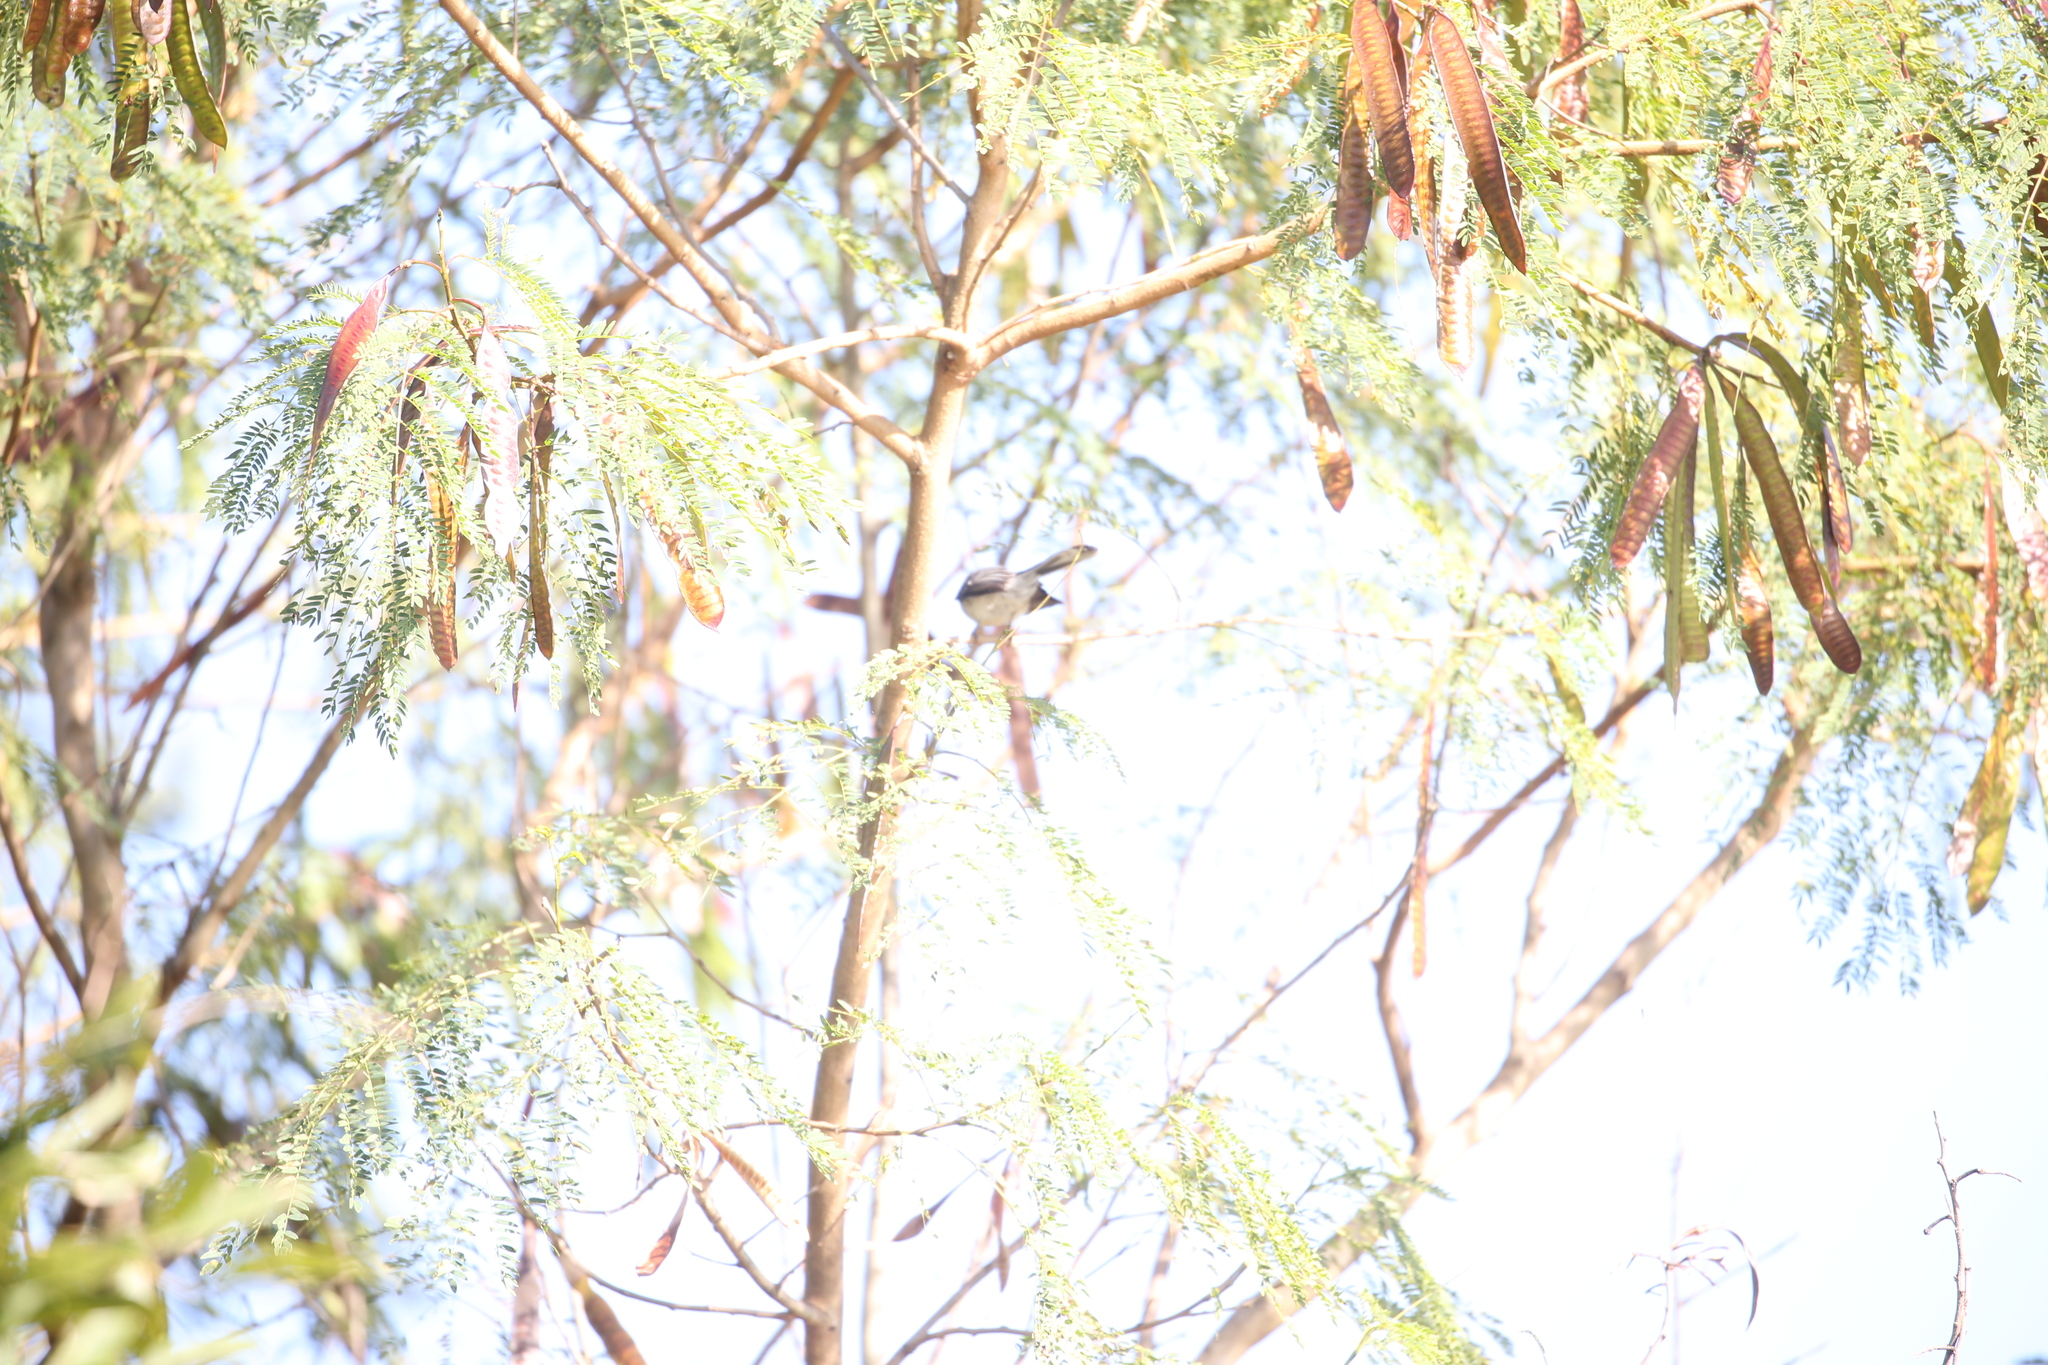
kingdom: Animalia
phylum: Chordata
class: Aves
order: Passeriformes
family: Rhipiduridae
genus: Rhipidura
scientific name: Rhipidura albiscapa
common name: Grey fantail
